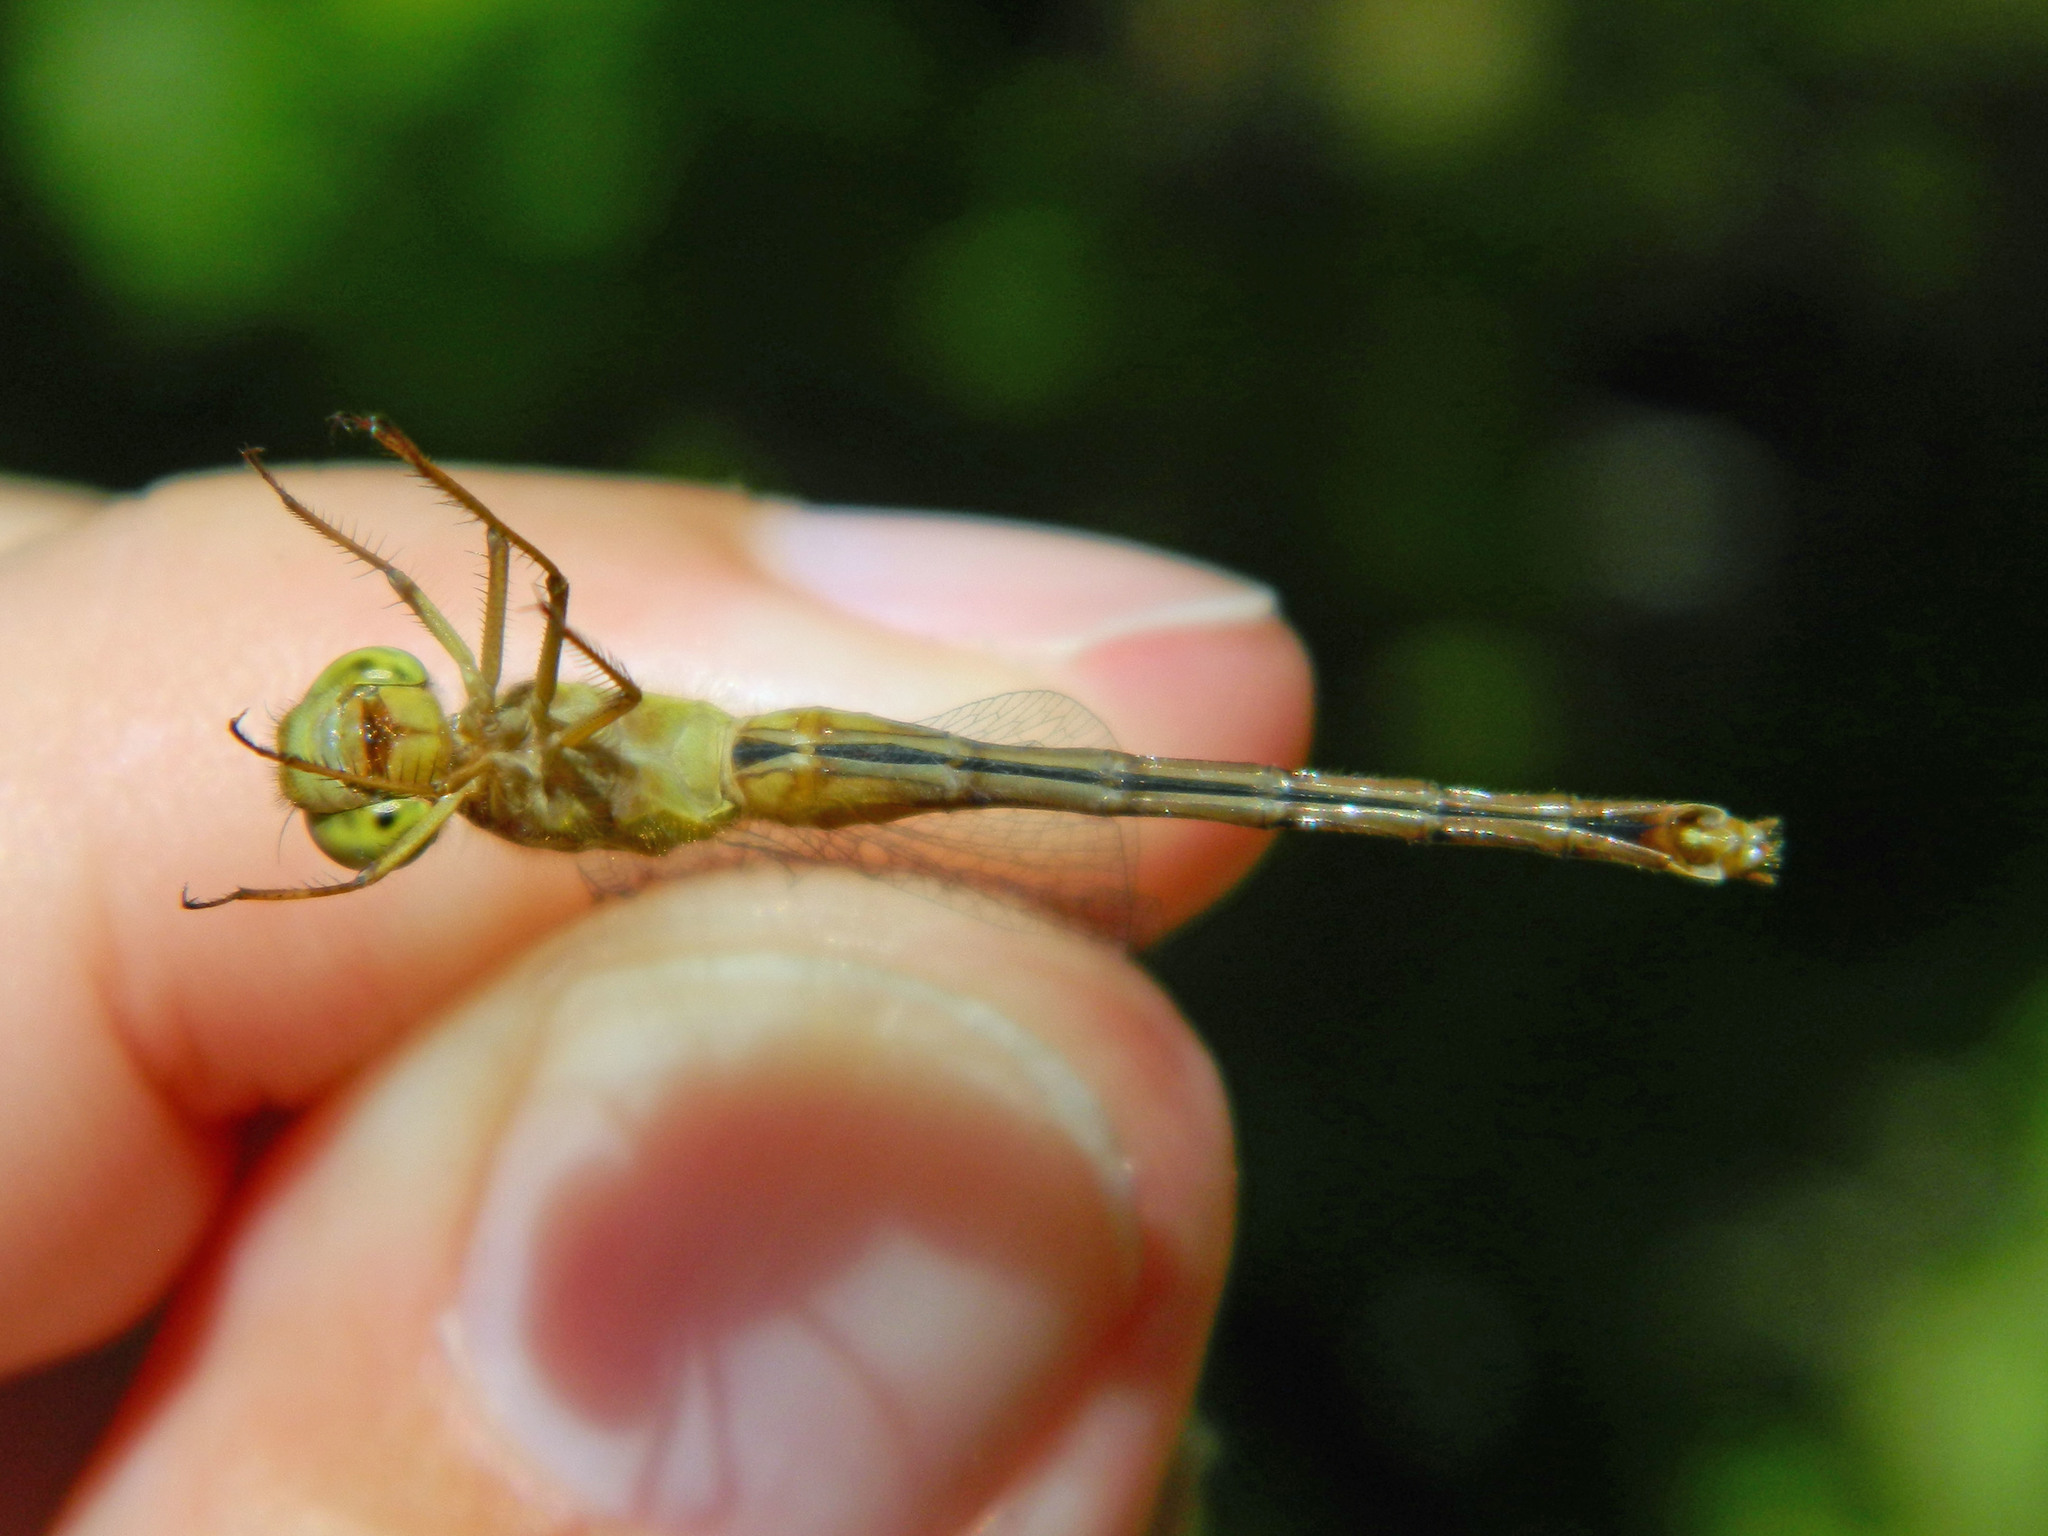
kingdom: Animalia
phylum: Arthropoda
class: Insecta
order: Odonata
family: Libellulidae
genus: Sympetrum
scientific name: Sympetrum vicinum
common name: Autumn meadowhawk
